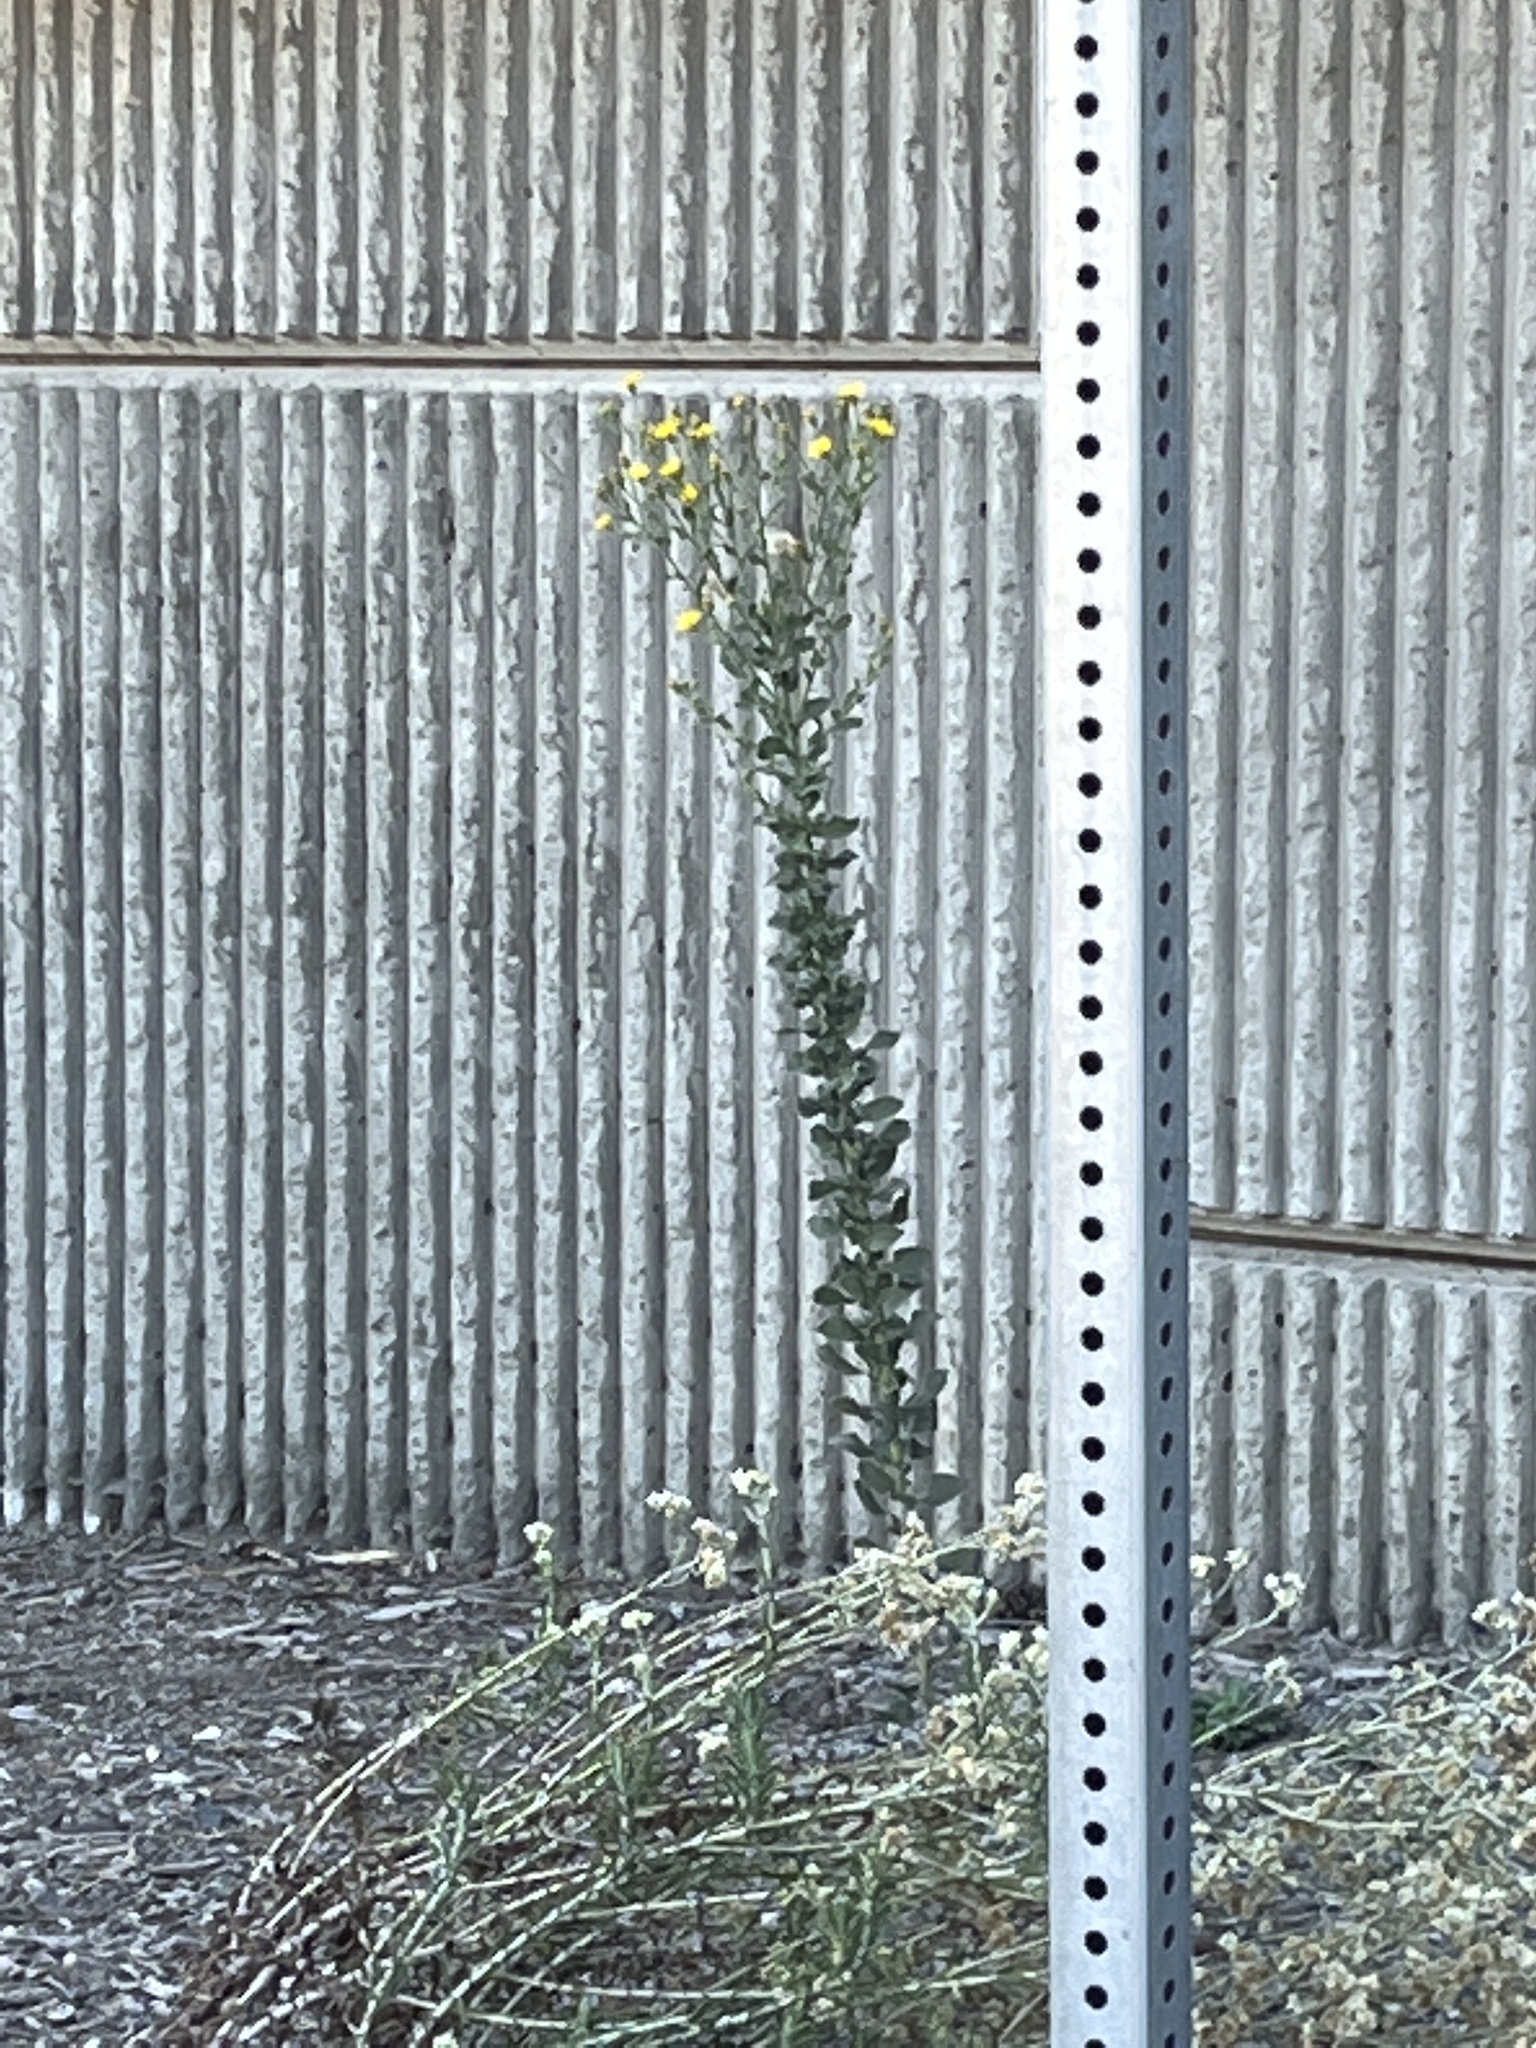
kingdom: Plantae
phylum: Tracheophyta
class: Magnoliopsida
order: Asterales
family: Asteraceae
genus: Heterotheca
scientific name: Heterotheca grandiflora
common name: Telegraphweed
